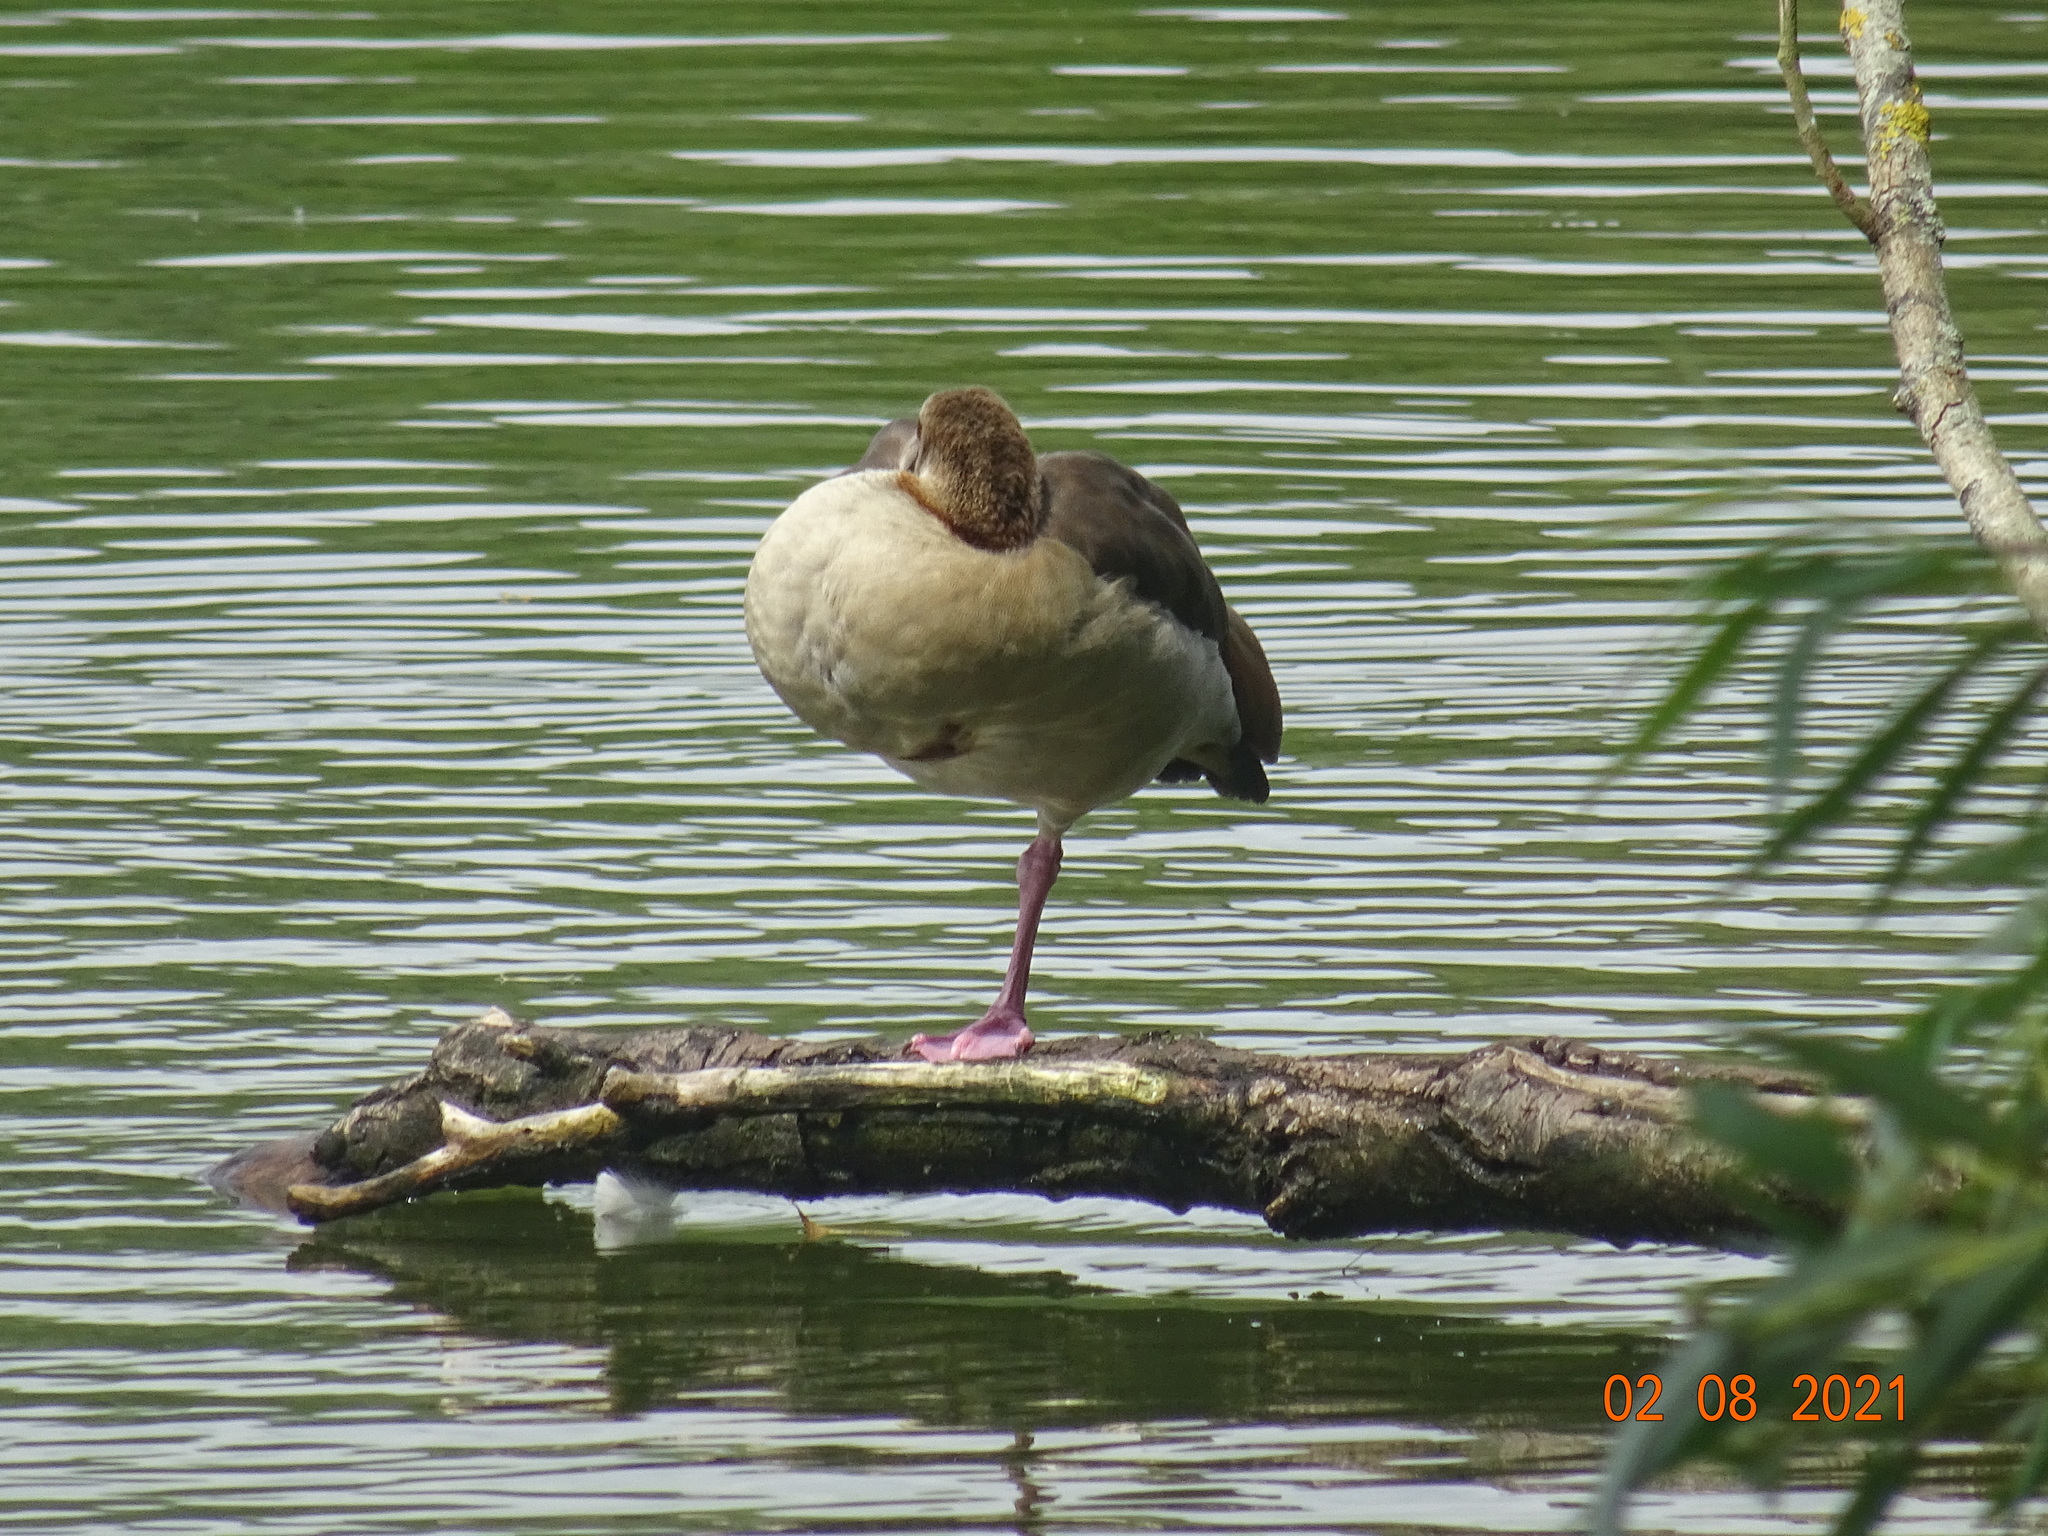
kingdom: Animalia
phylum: Chordata
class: Aves
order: Anseriformes
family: Anatidae
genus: Alopochen
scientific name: Alopochen aegyptiaca
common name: Egyptian goose
